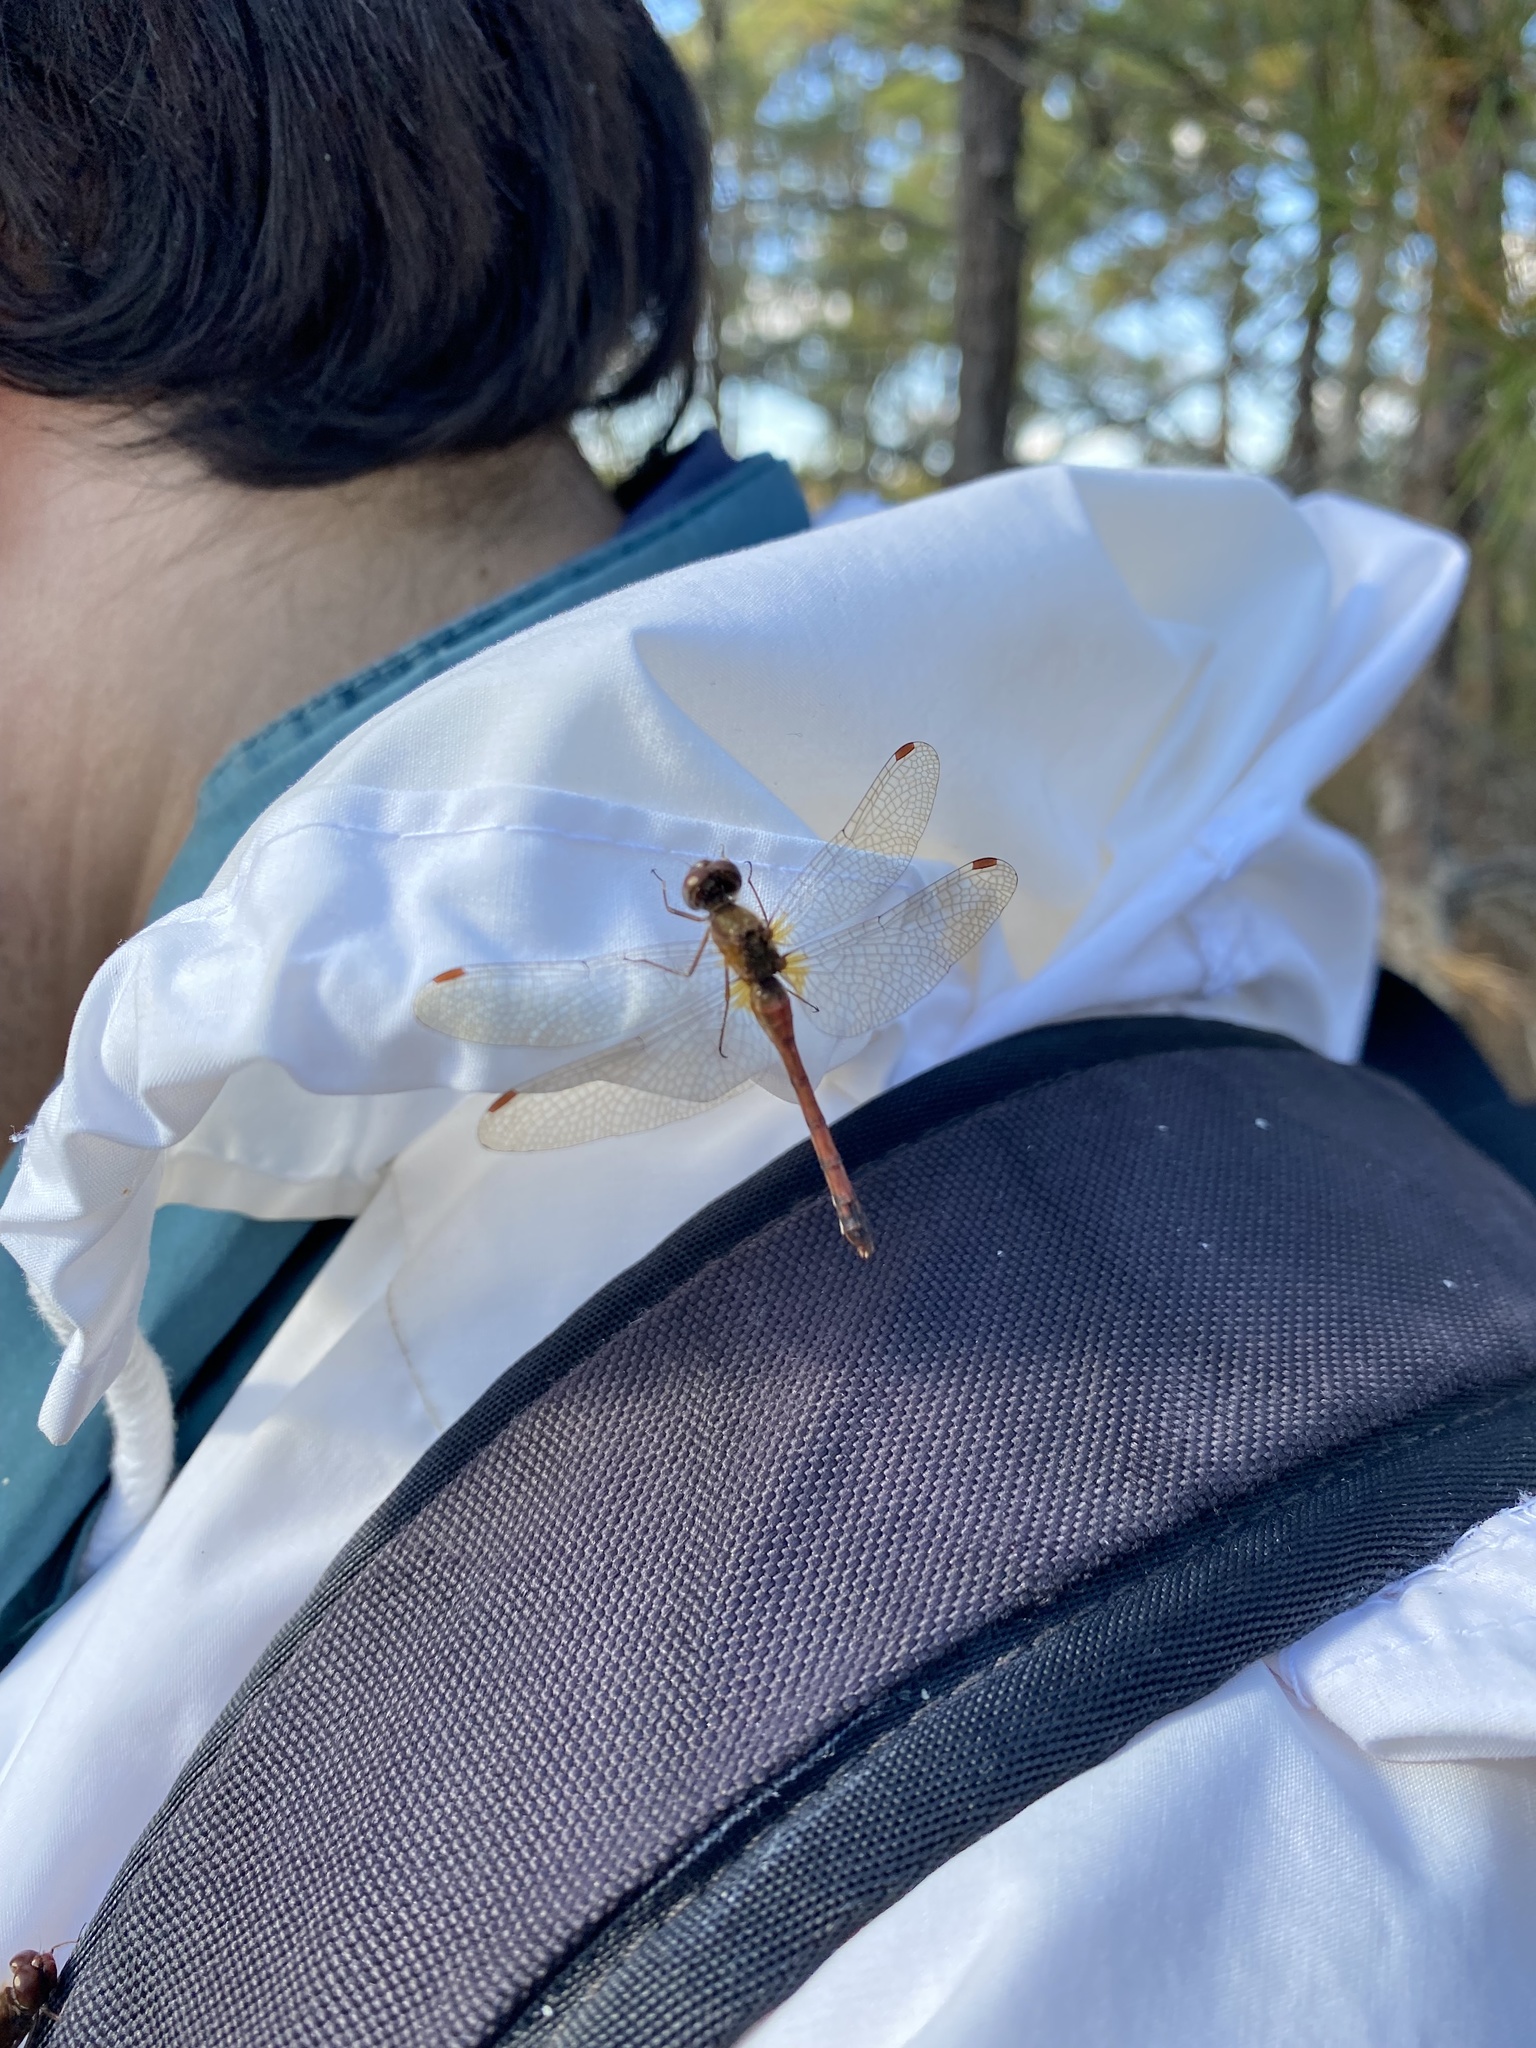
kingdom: Animalia
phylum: Arthropoda
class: Insecta
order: Odonata
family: Libellulidae
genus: Sympetrum
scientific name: Sympetrum vicinum
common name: Autumn meadowhawk
